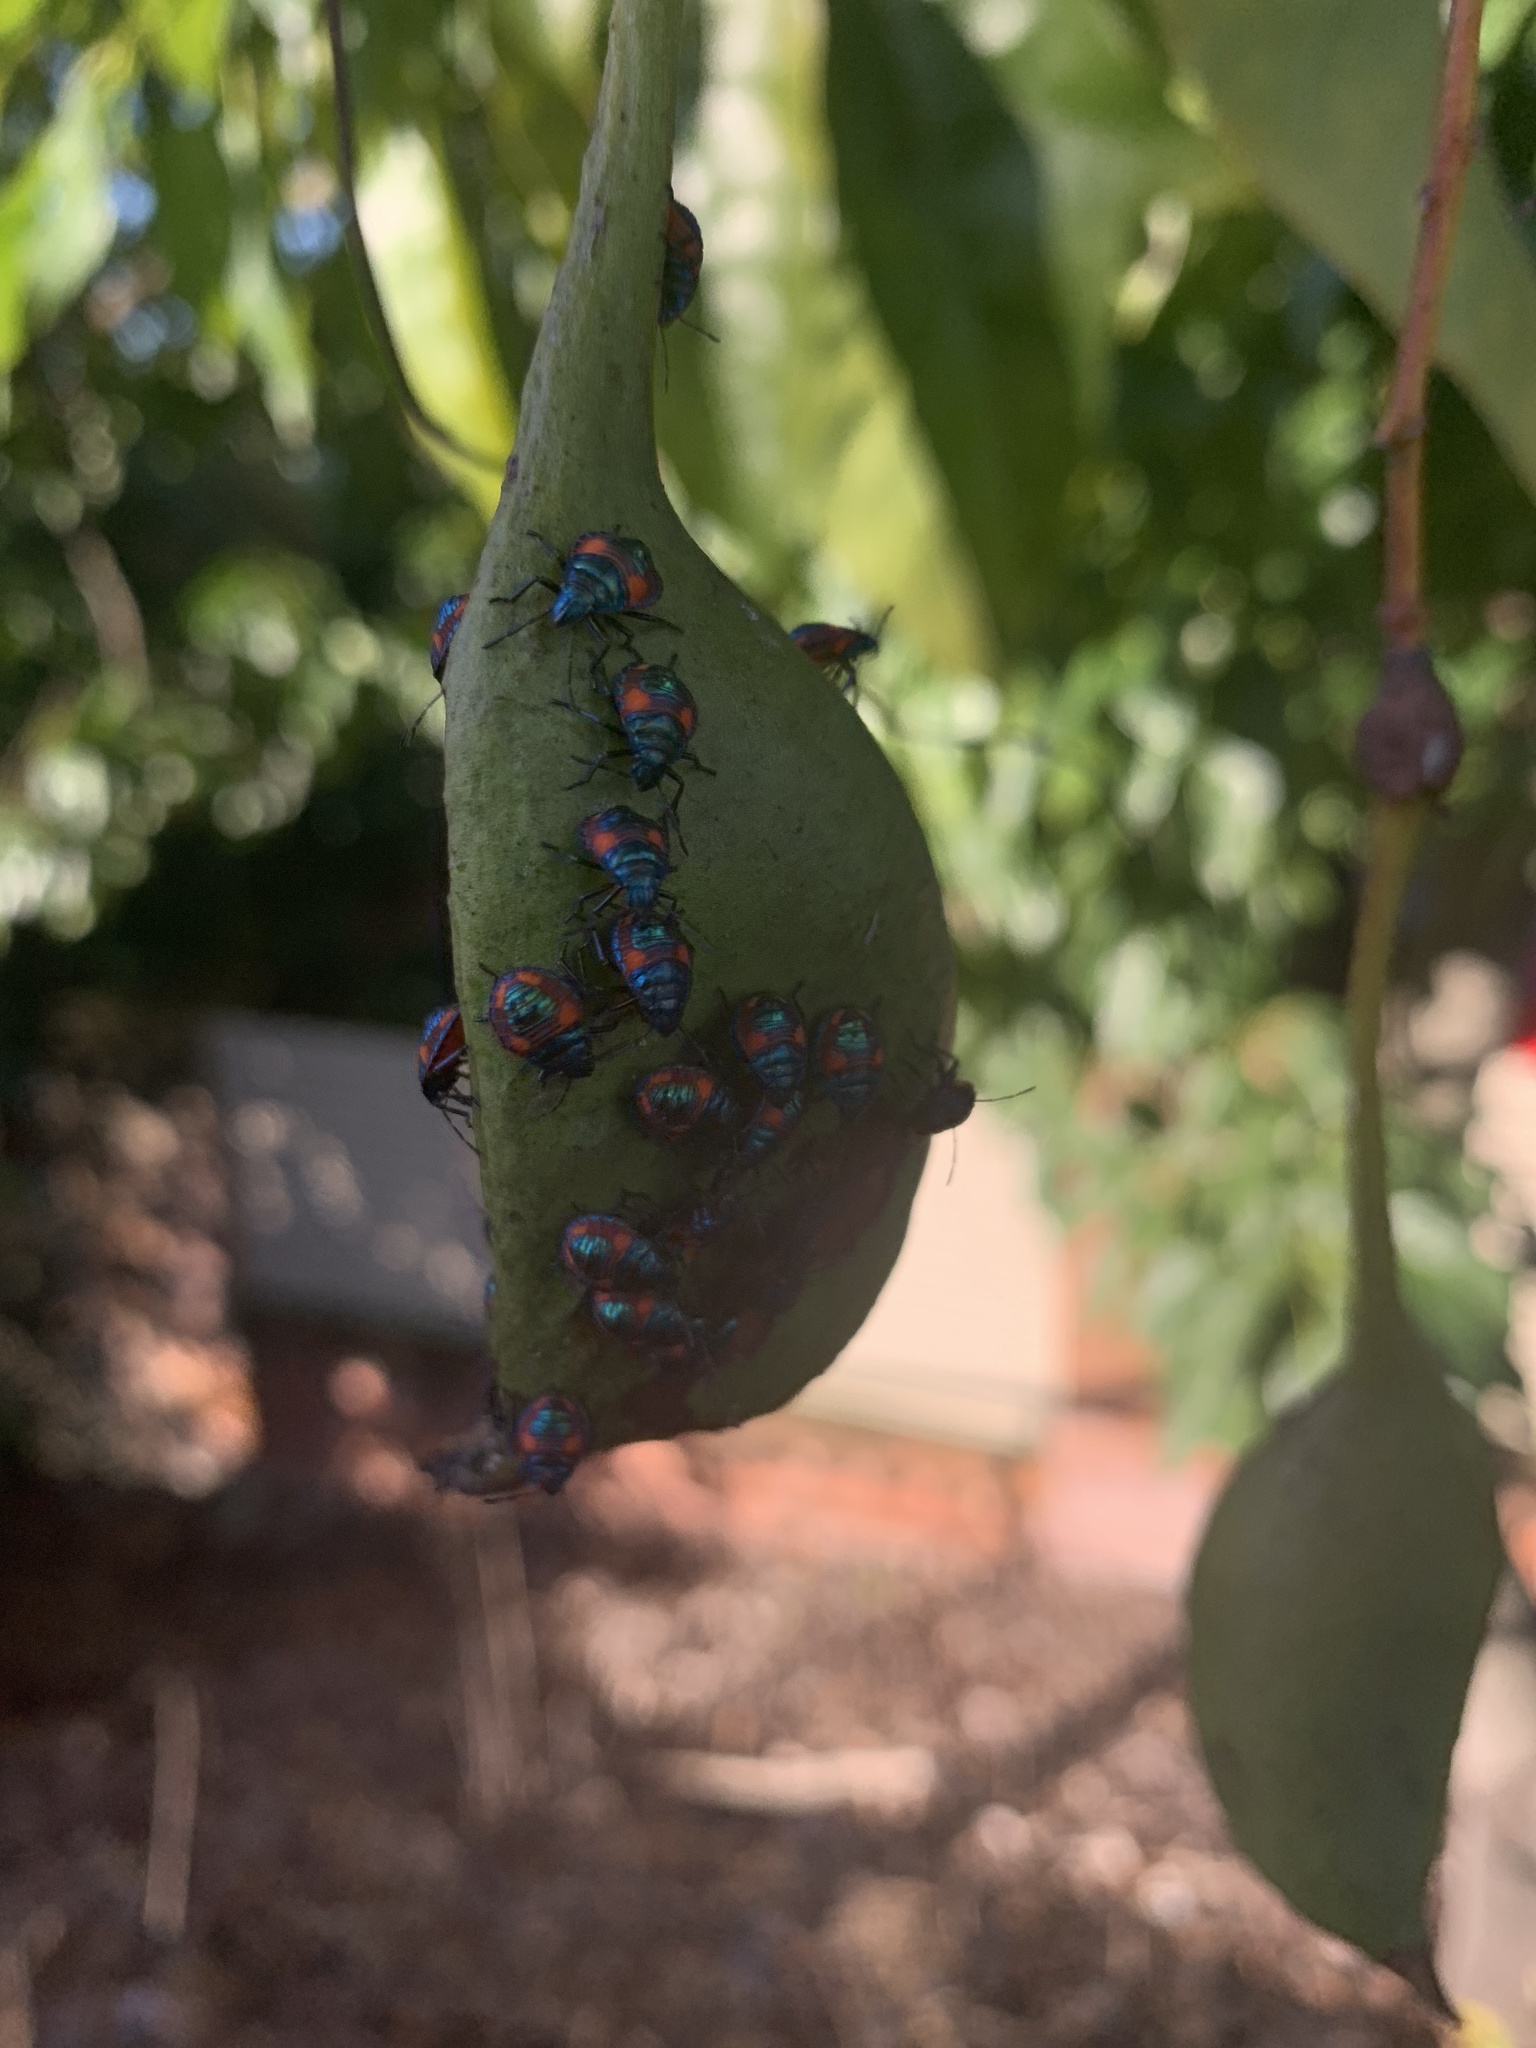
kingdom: Animalia
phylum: Arthropoda
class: Insecta
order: Hemiptera
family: Scutelleridae
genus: Tectocoris
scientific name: Tectocoris diophthalmus
